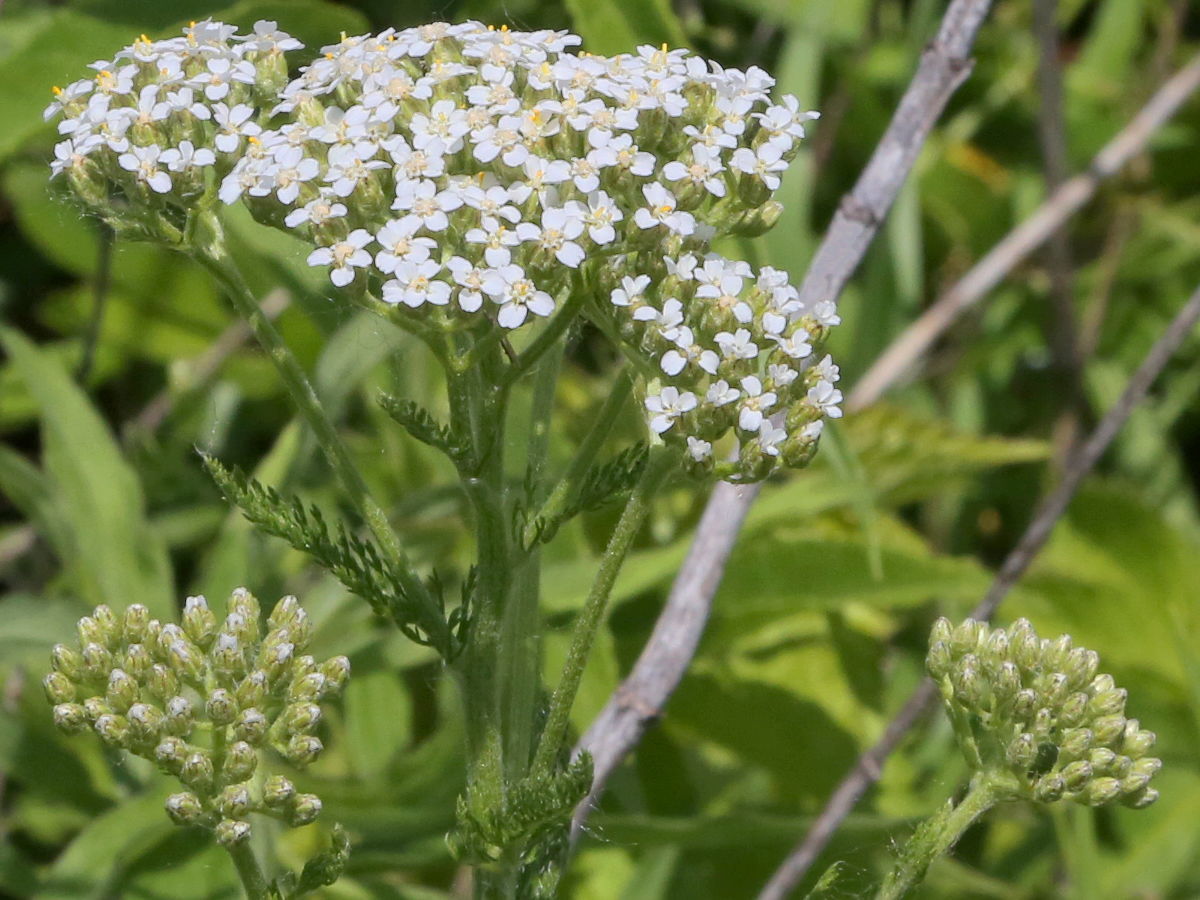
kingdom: Plantae
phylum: Tracheophyta
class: Magnoliopsida
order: Asterales
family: Asteraceae
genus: Achillea
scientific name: Achillea millefolium
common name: Yarrow
